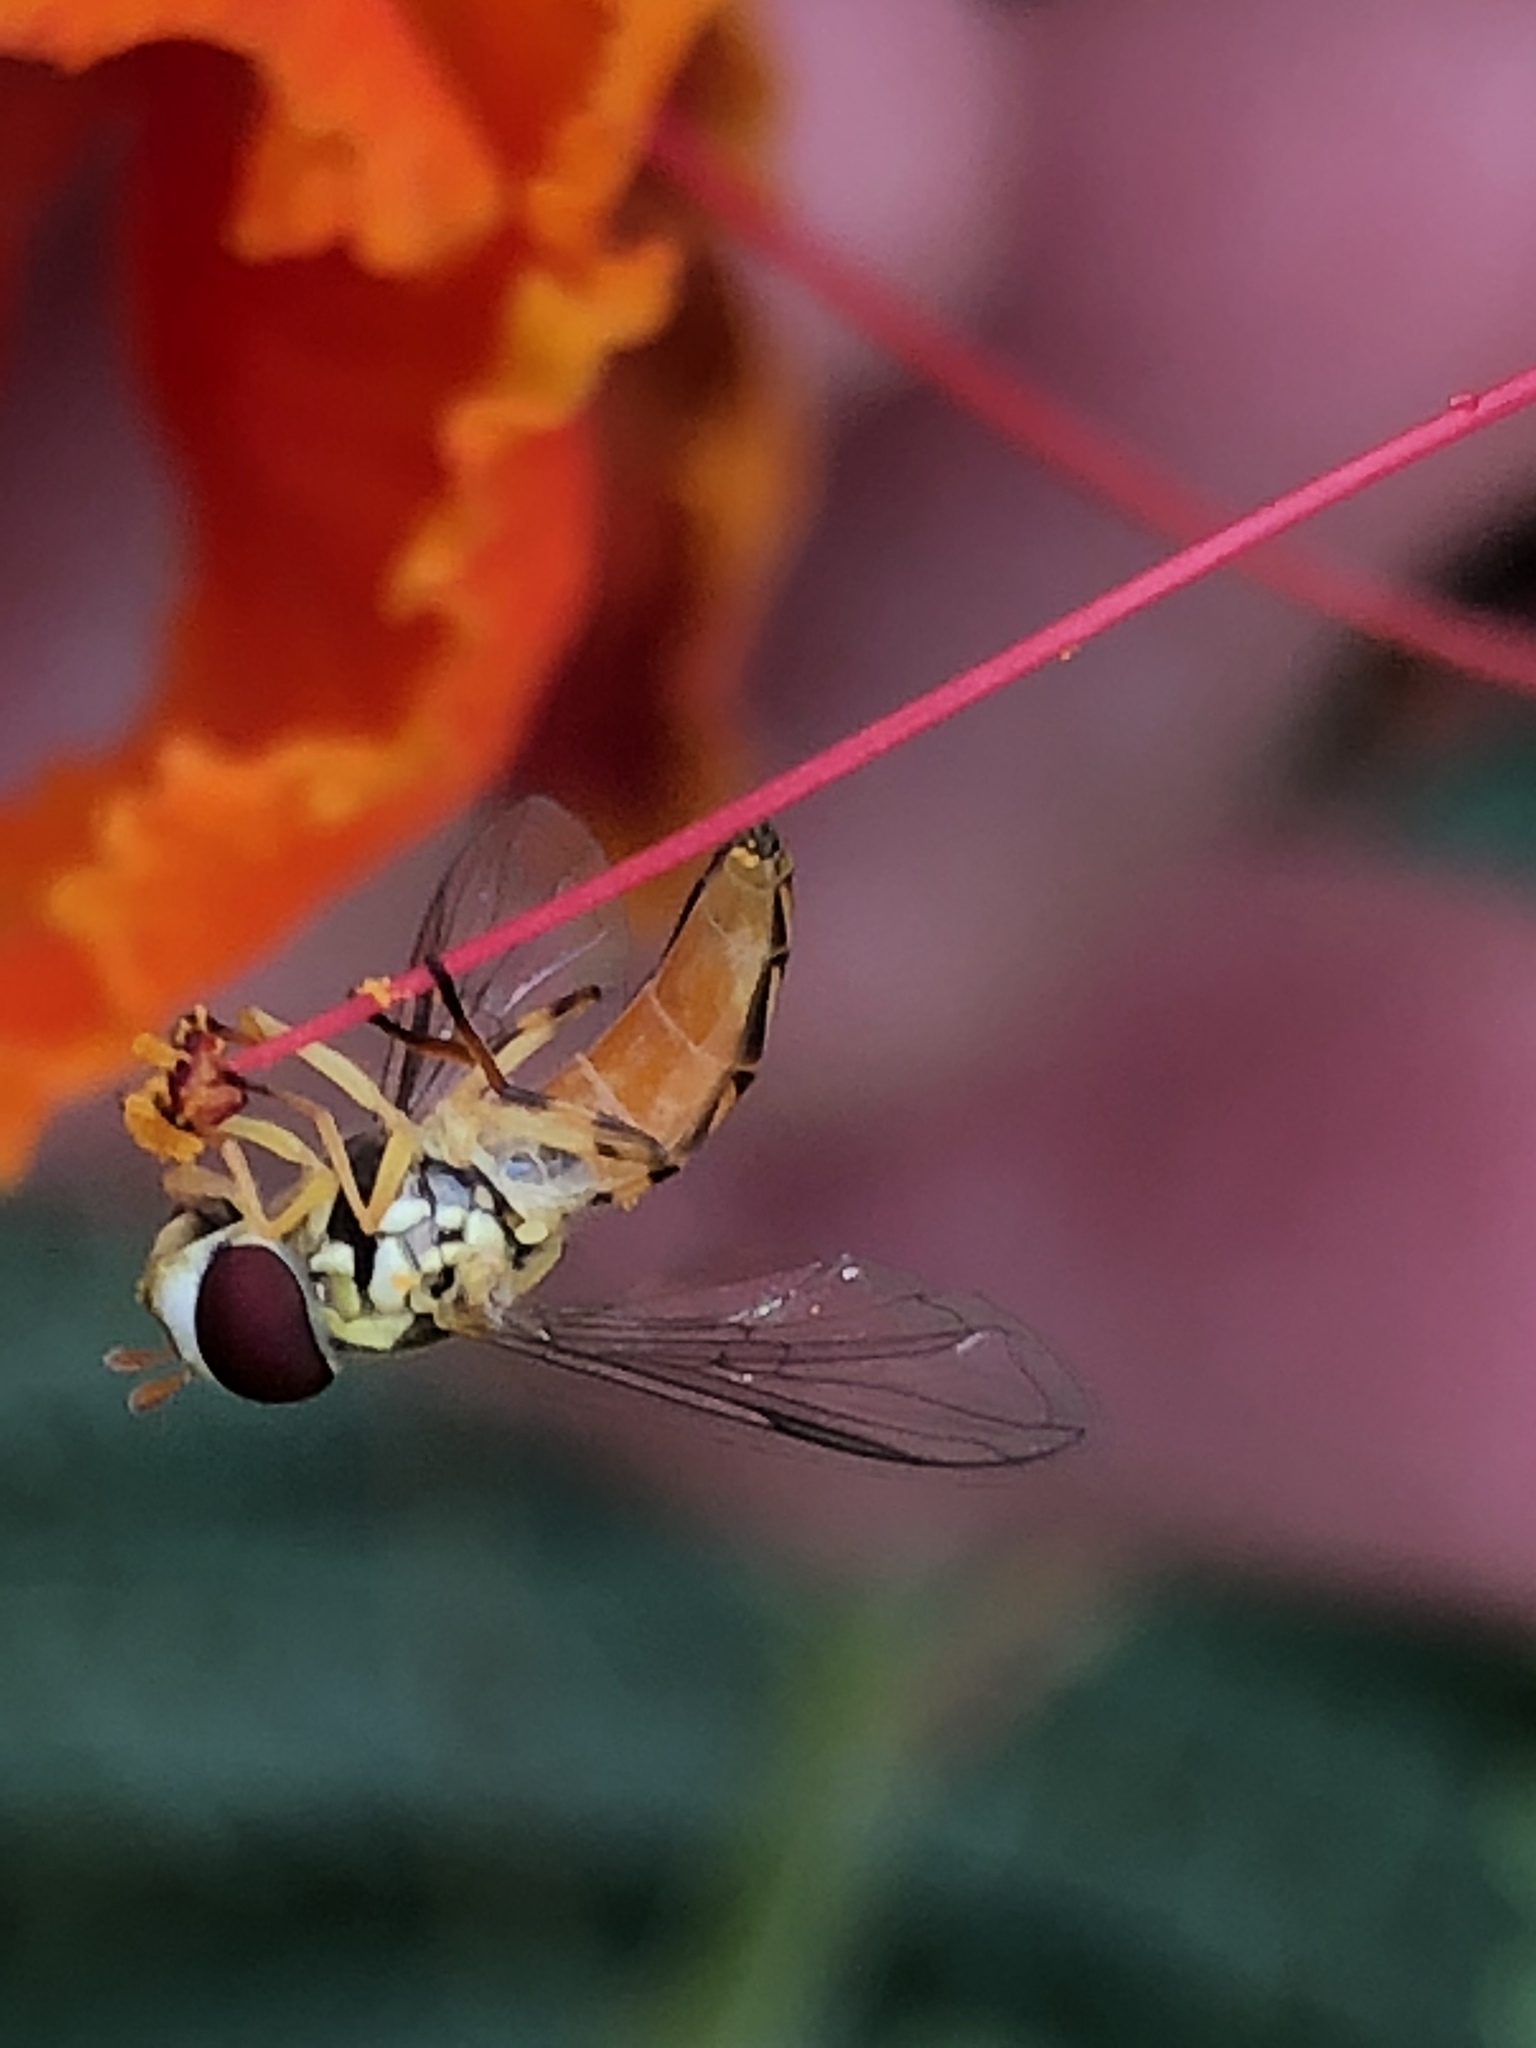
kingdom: Animalia
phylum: Arthropoda
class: Insecta
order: Diptera
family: Syrphidae
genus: Allograpta
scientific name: Allograpta obliqua
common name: Common oblique syrphid
